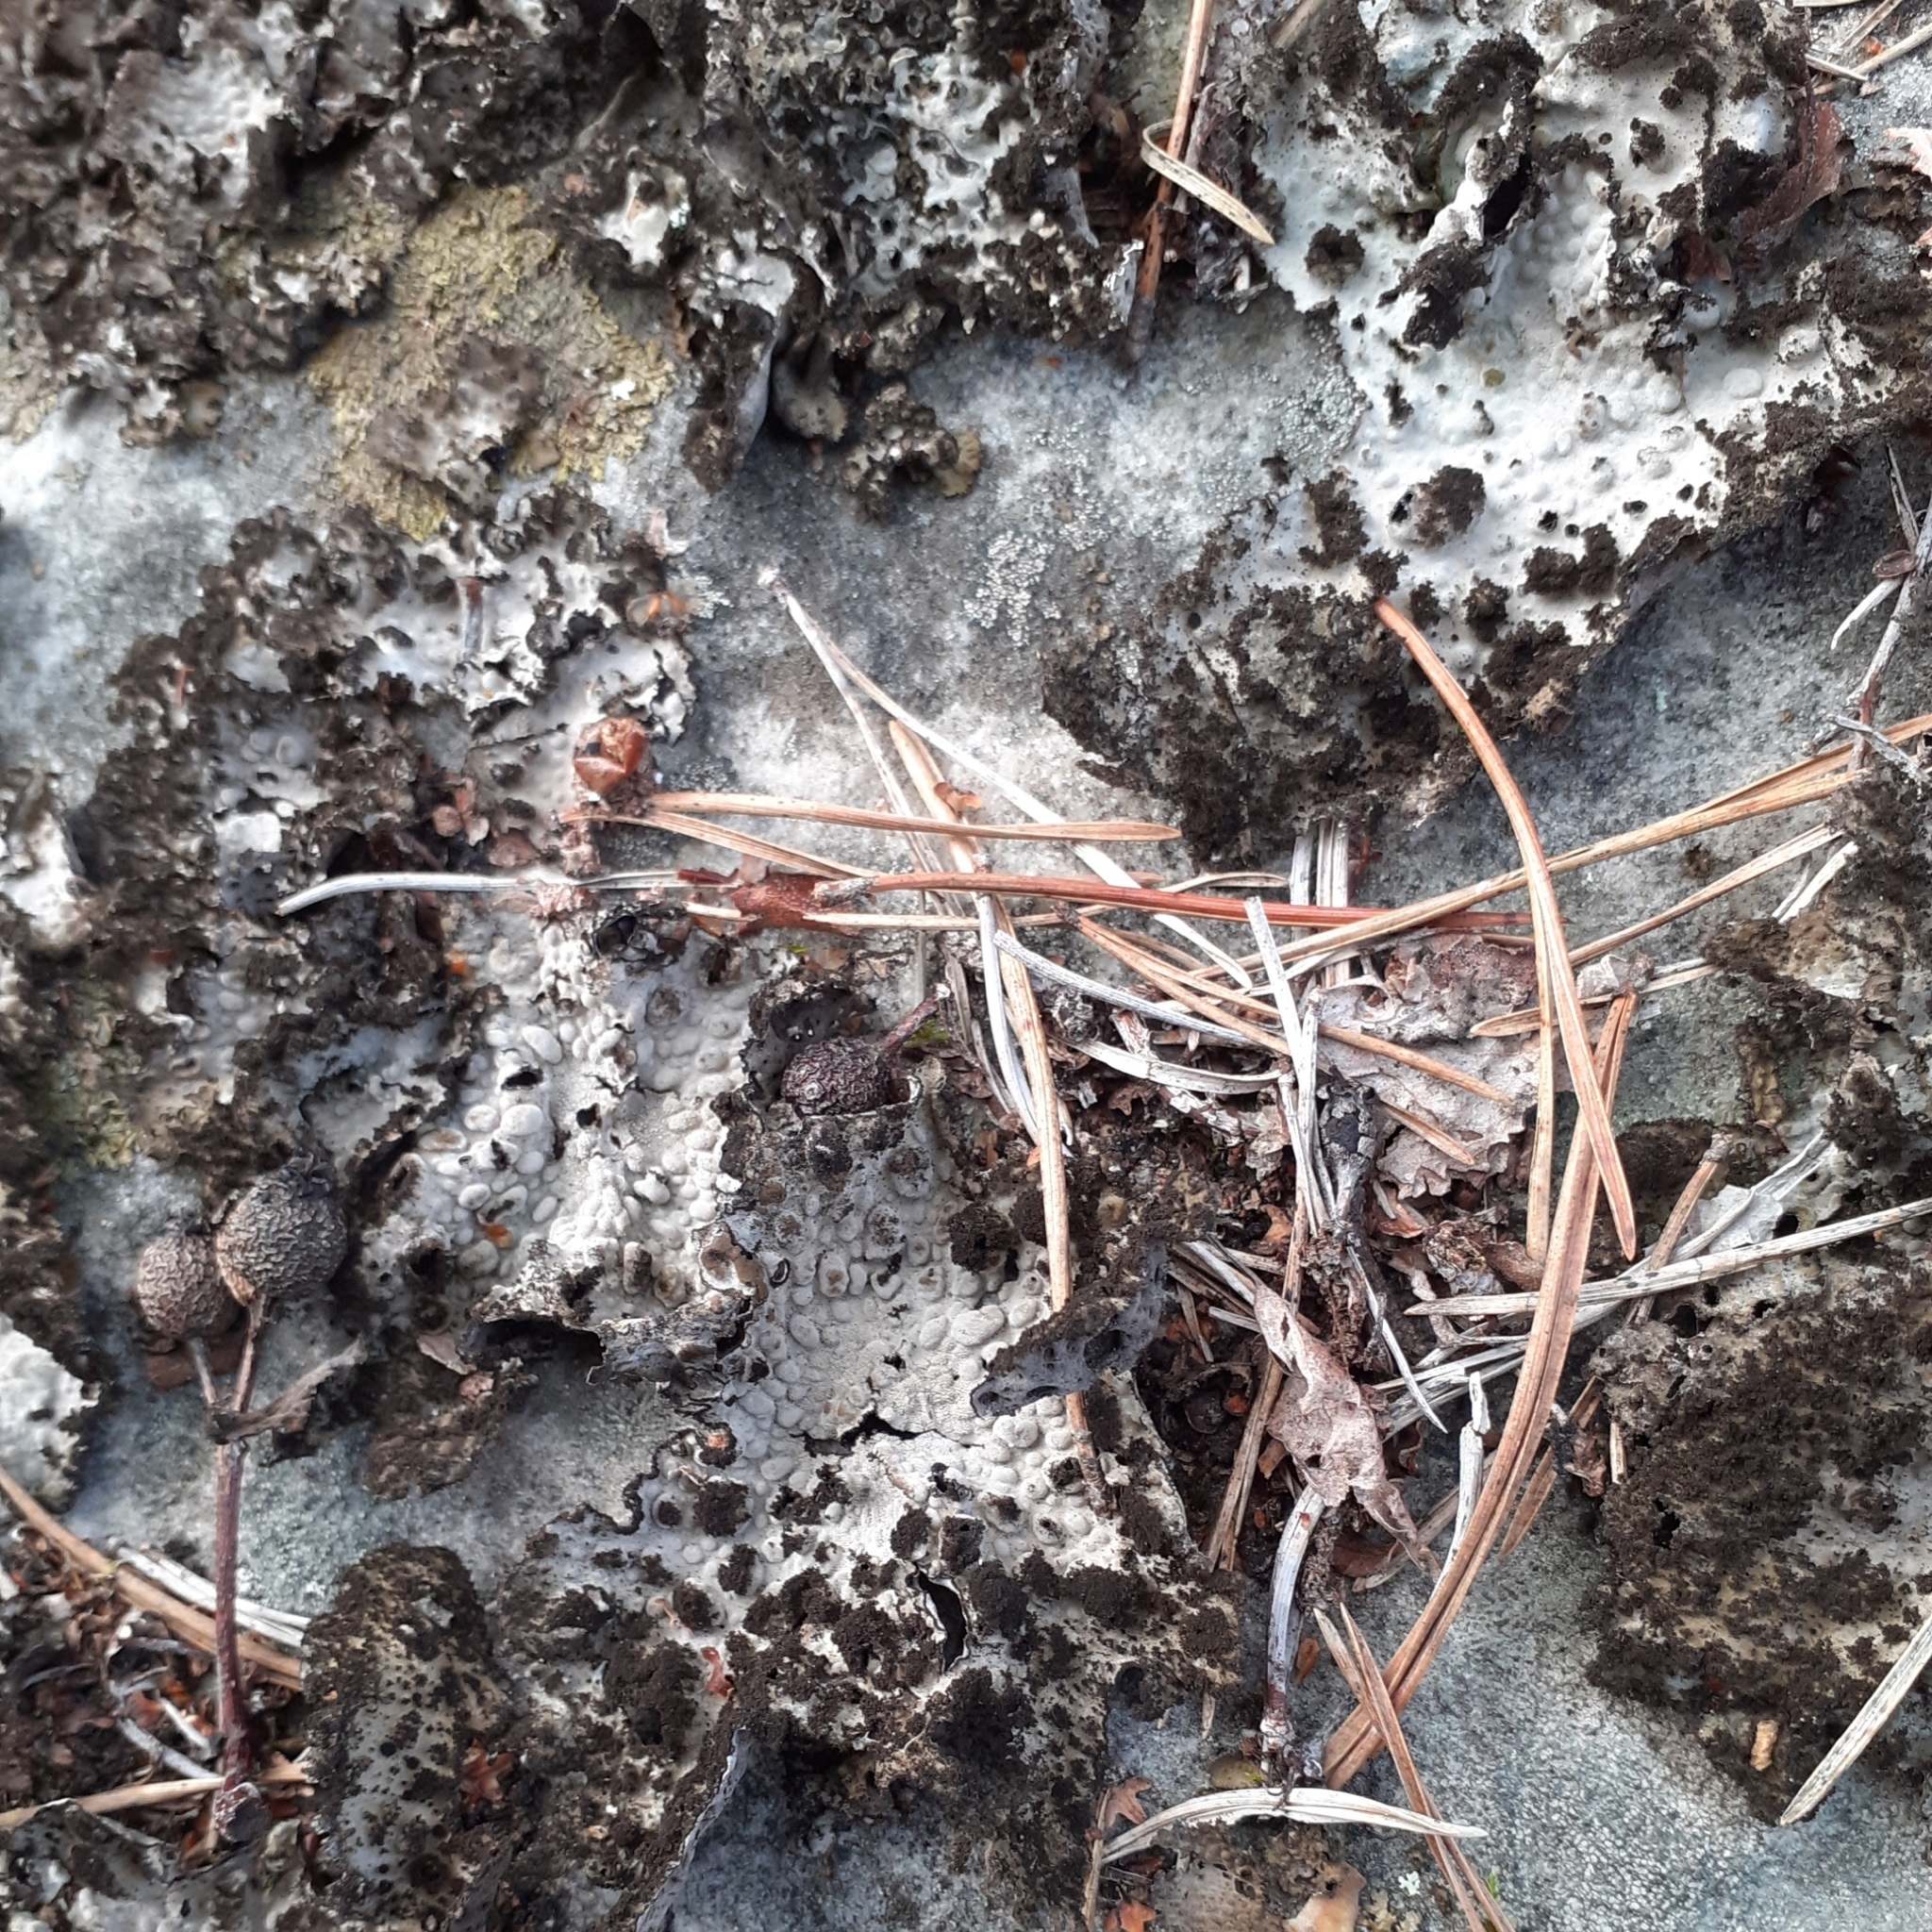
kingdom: Fungi
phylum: Ascomycota
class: Lecanoromycetes
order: Umbilicariales
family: Umbilicariaceae
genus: Lasallia
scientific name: Lasallia pustulata
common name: Blistered toadskin lichen
